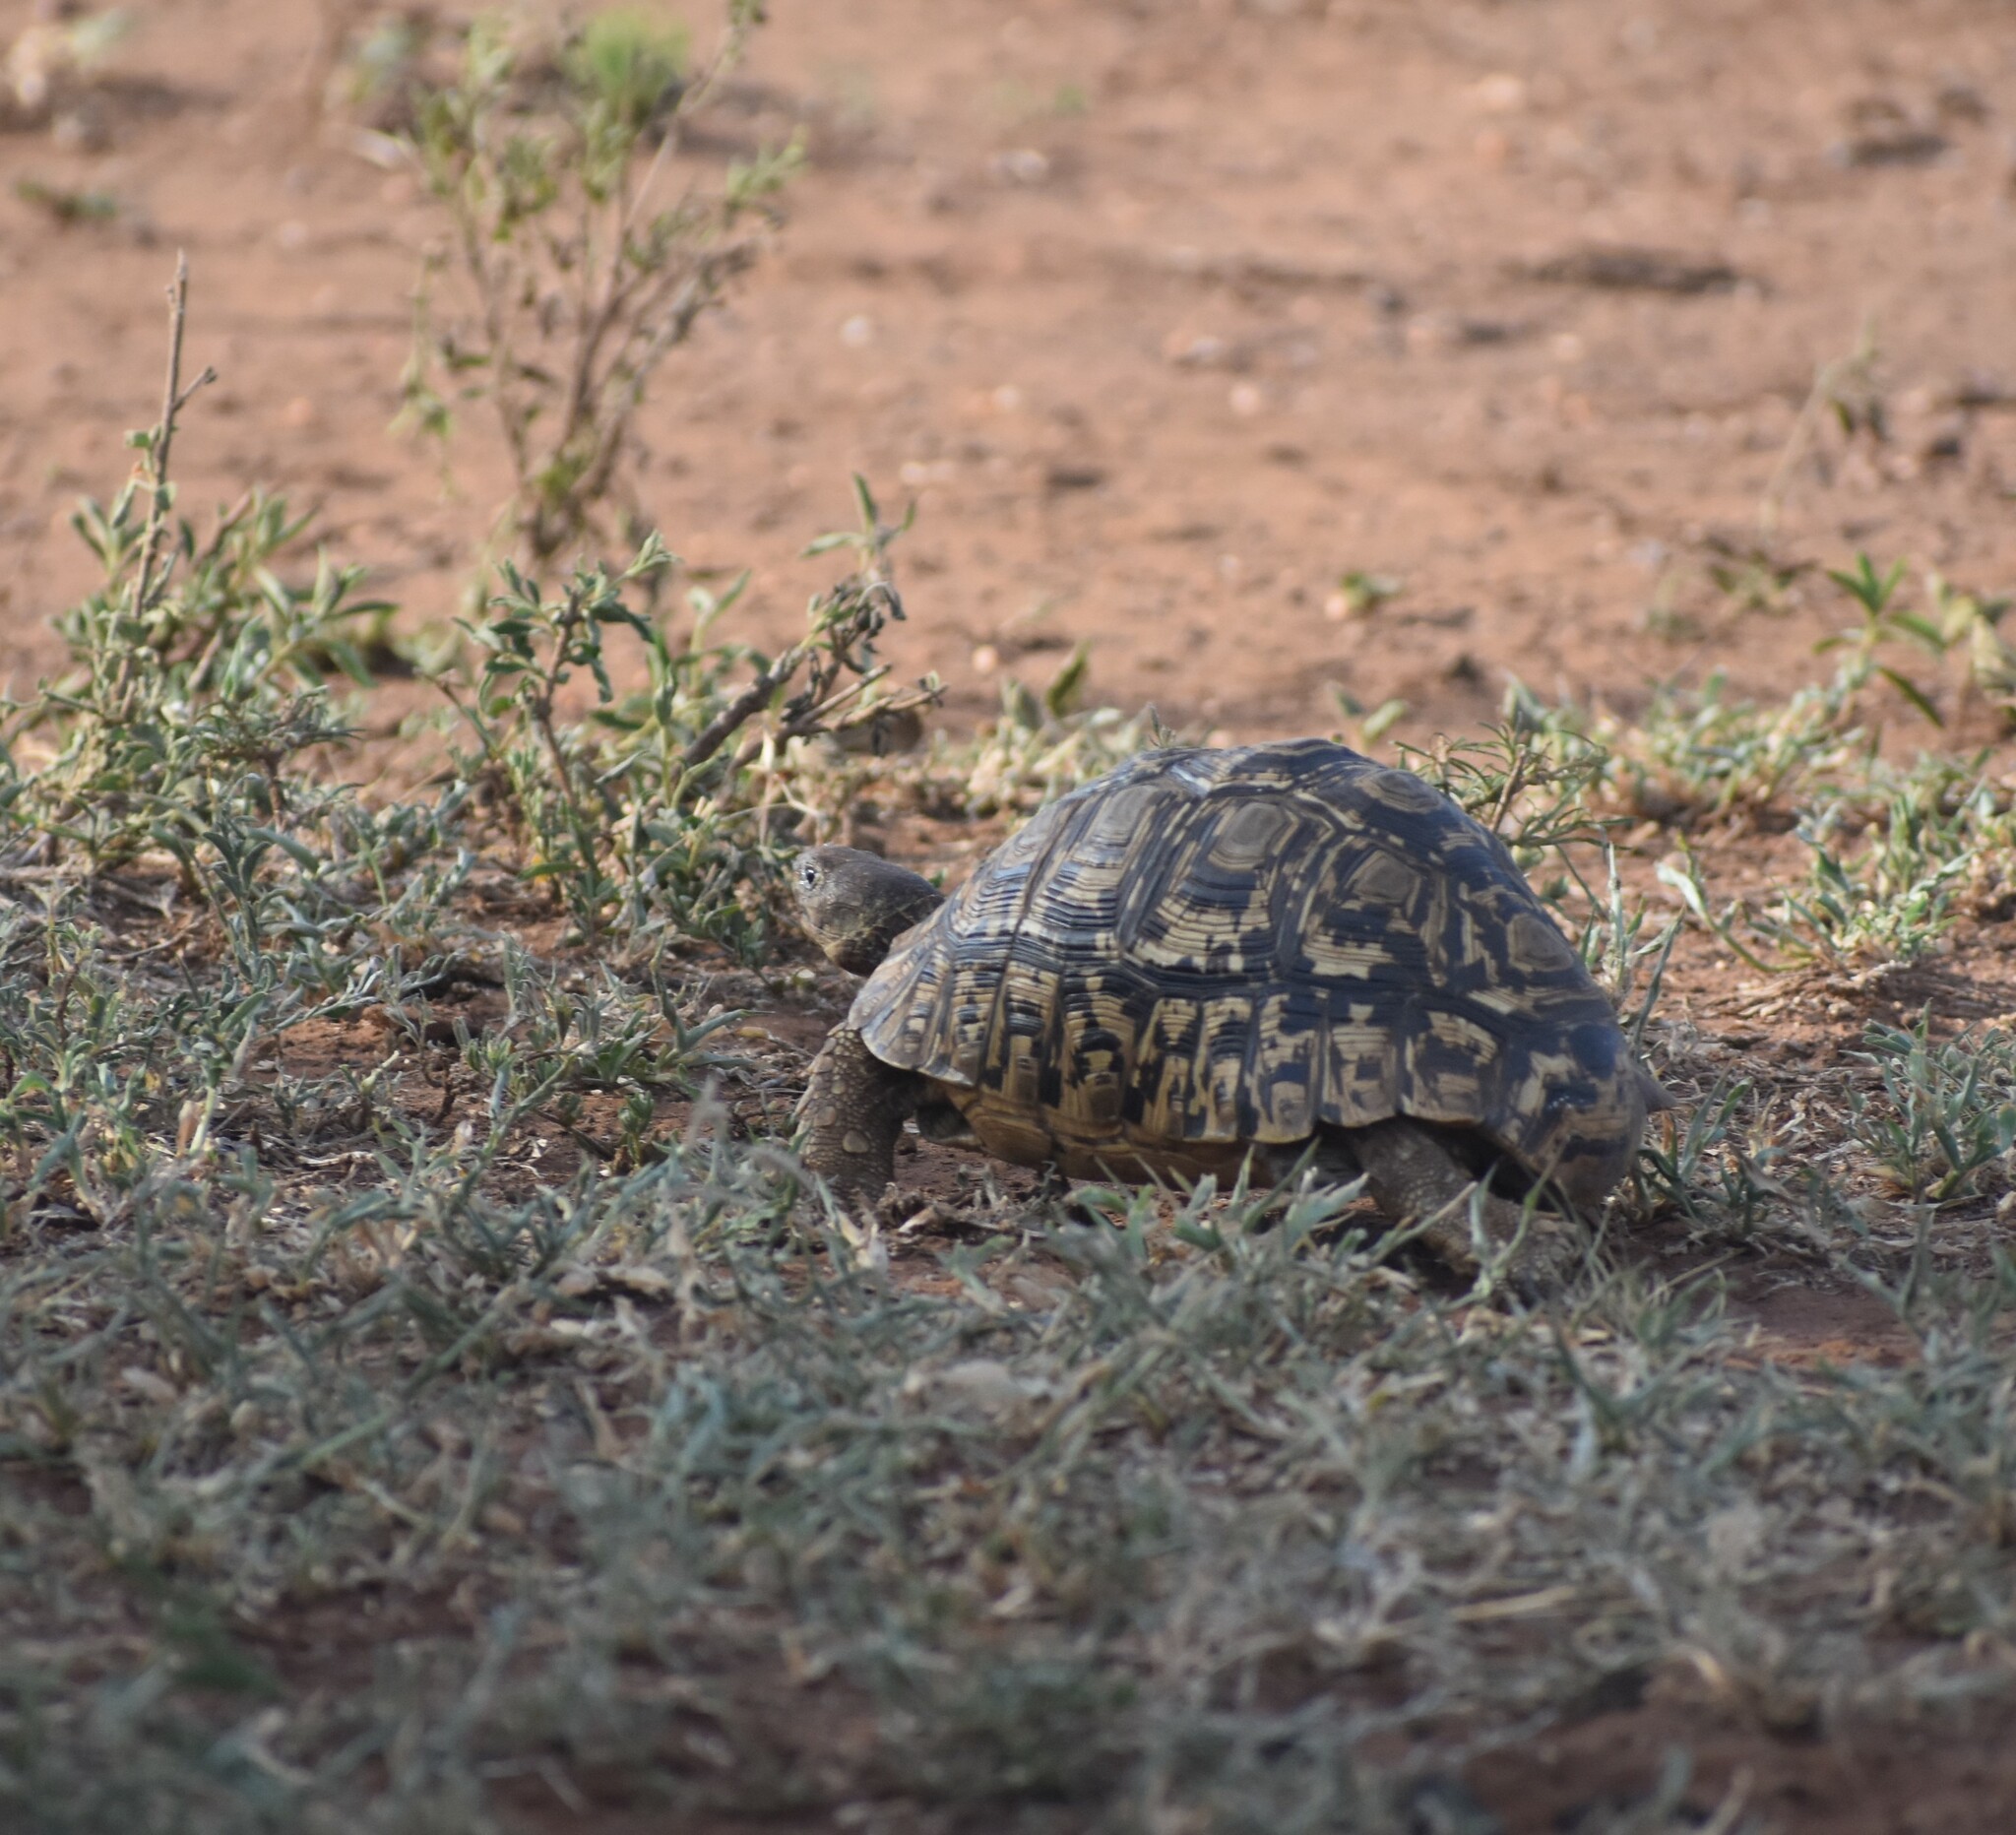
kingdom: Animalia
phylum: Chordata
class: Testudines
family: Testudinidae
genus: Stigmochelys
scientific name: Stigmochelys pardalis
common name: Leopard tortoise
